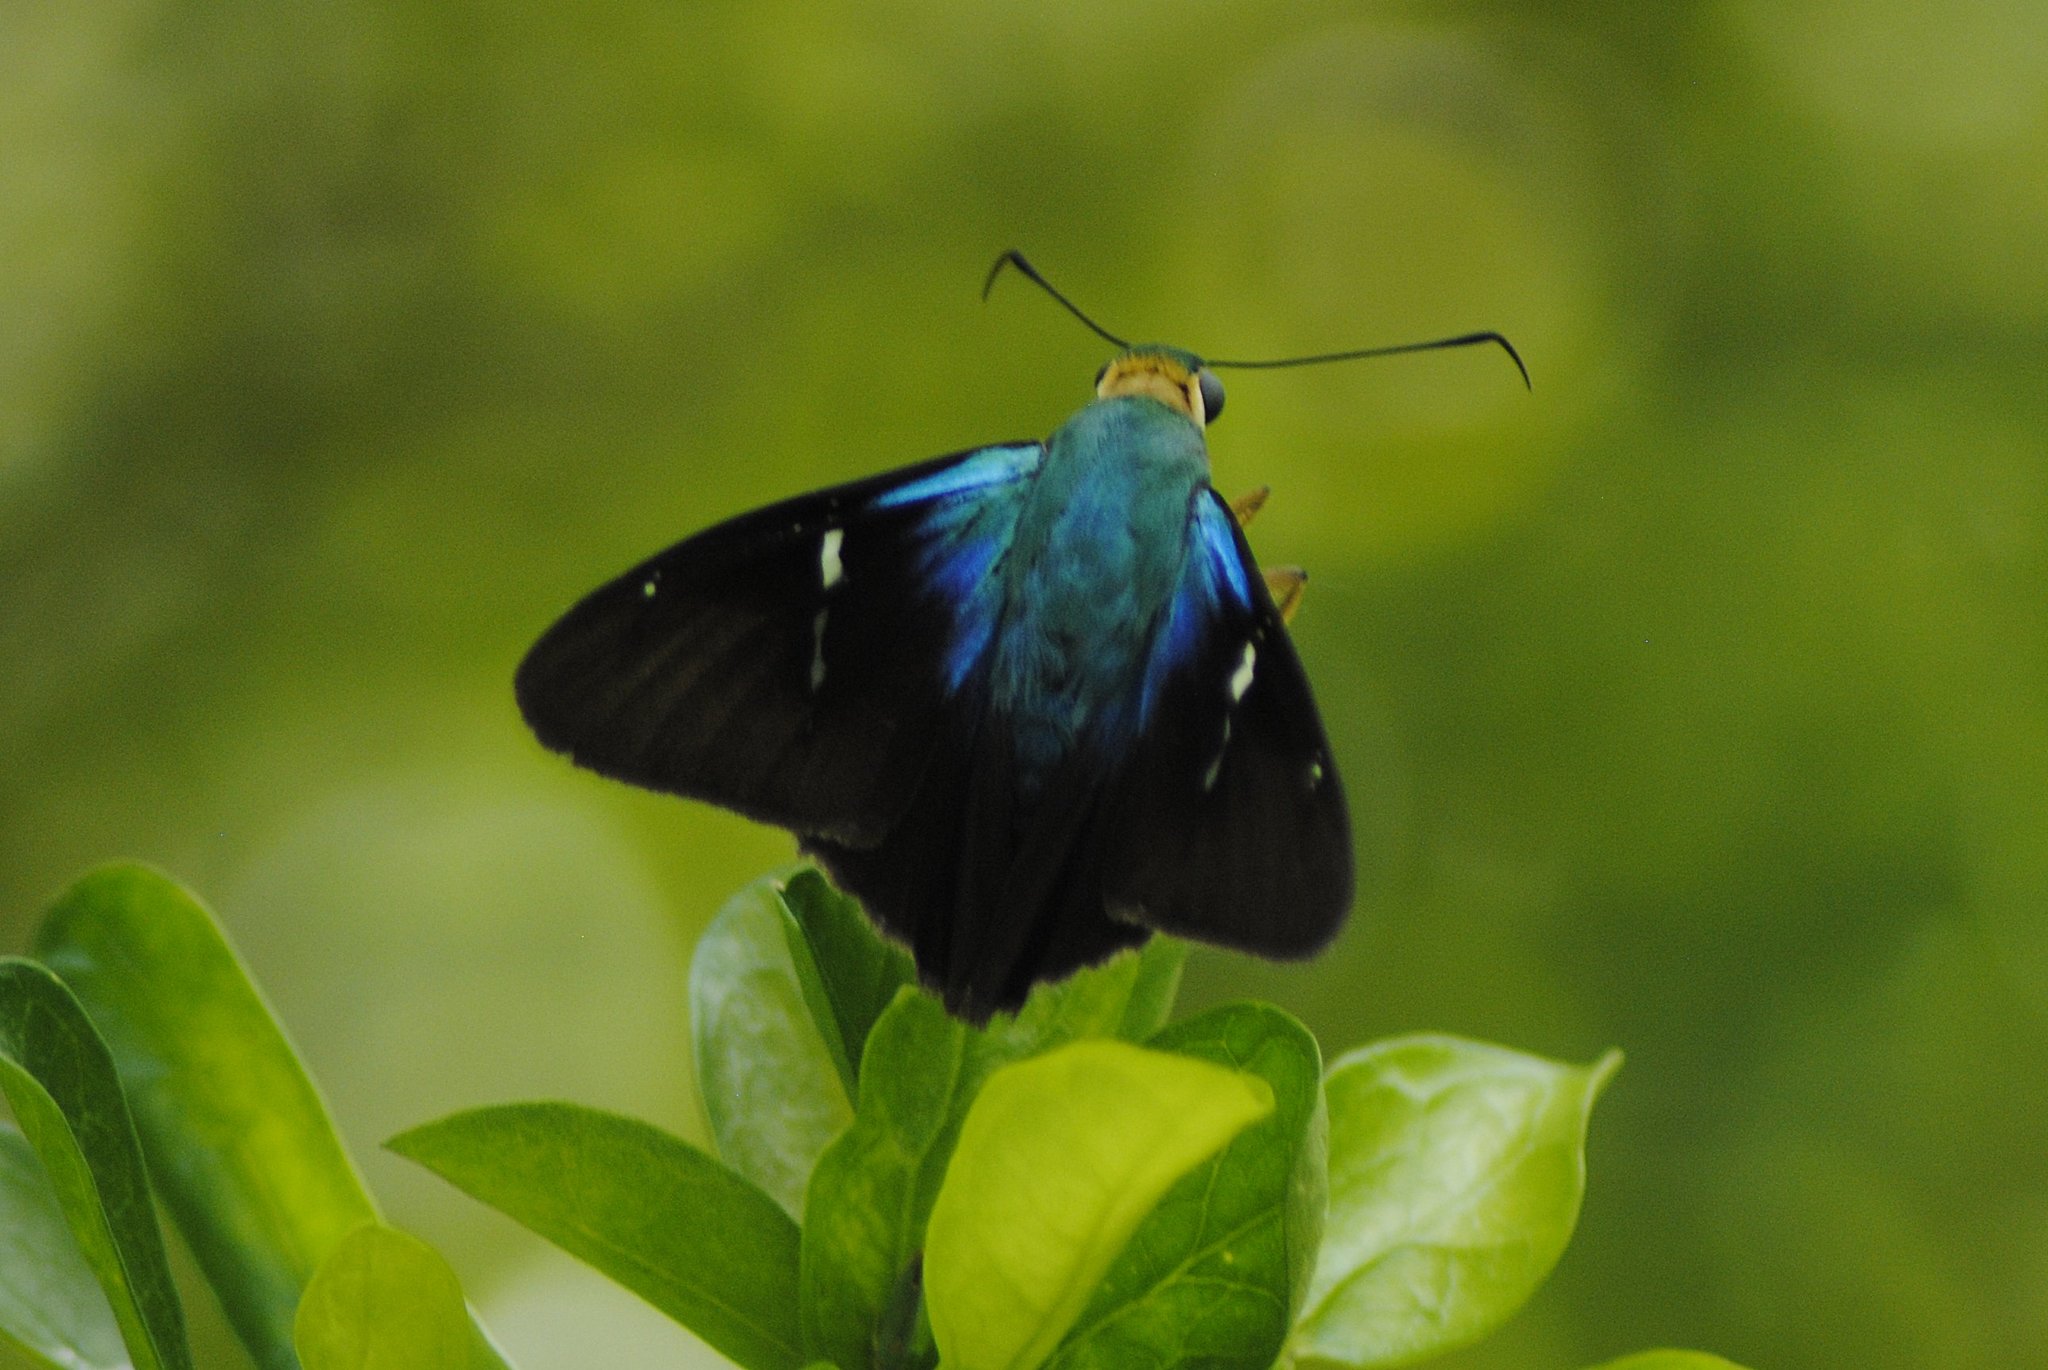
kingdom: Animalia
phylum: Arthropoda
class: Insecta
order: Lepidoptera
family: Hesperiidae
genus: Astraptes
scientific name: Astraptes fulgerator
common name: Two-barred flasher
